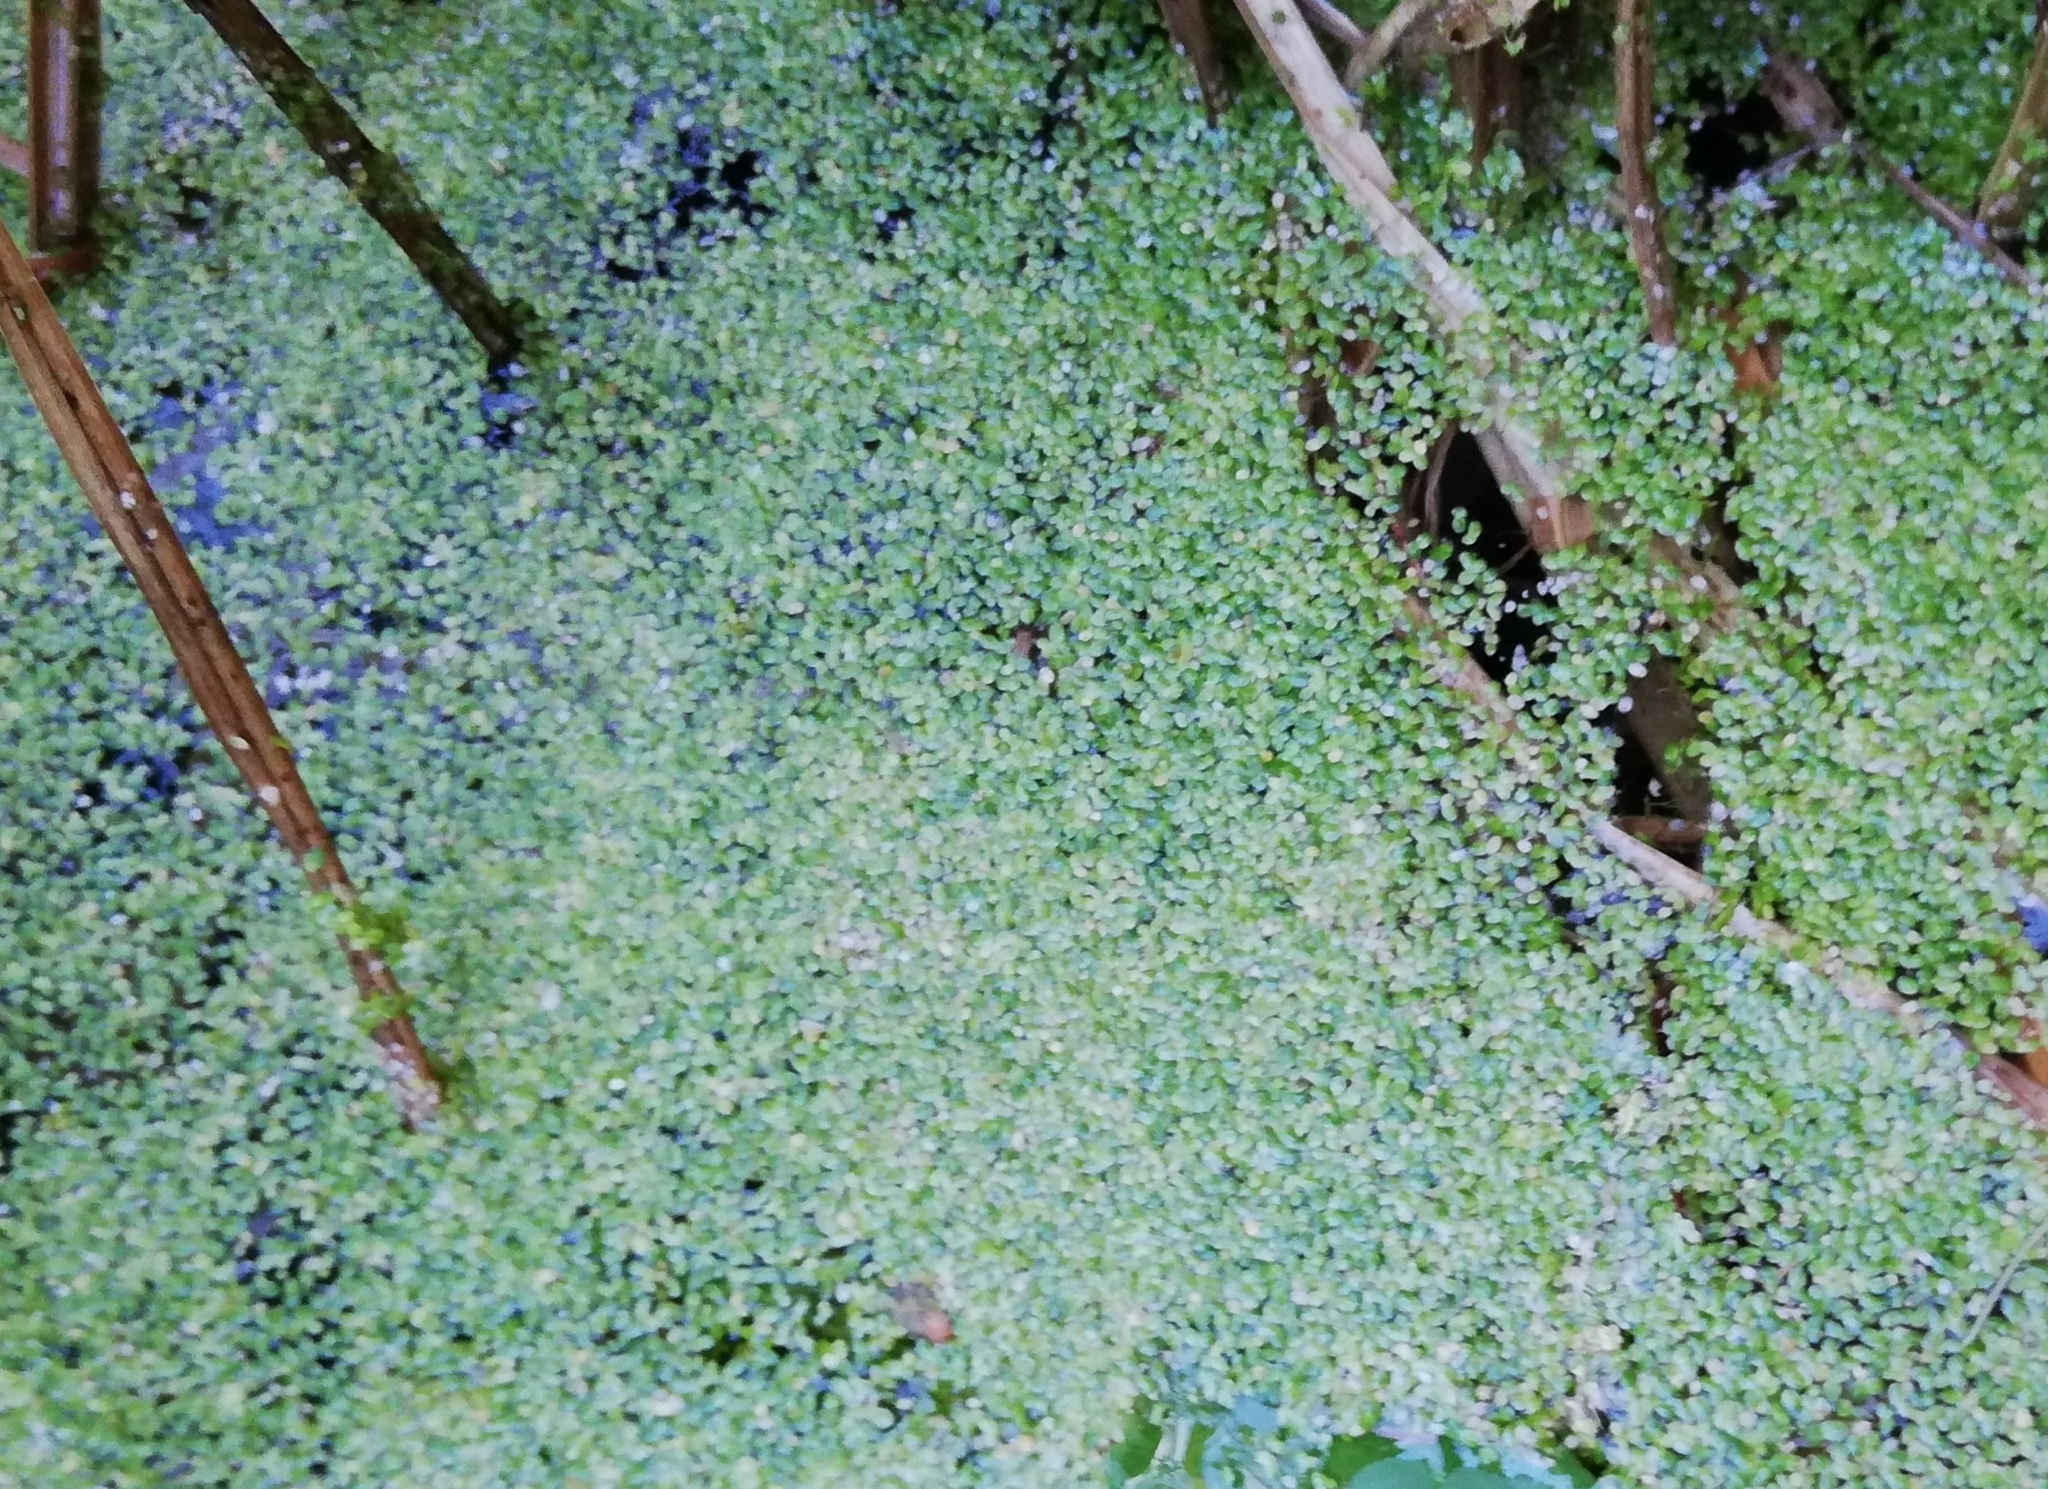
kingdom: Plantae
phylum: Tracheophyta
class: Liliopsida
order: Alismatales
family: Araceae
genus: Lemna
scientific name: Lemna minuta
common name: Least duckweed
